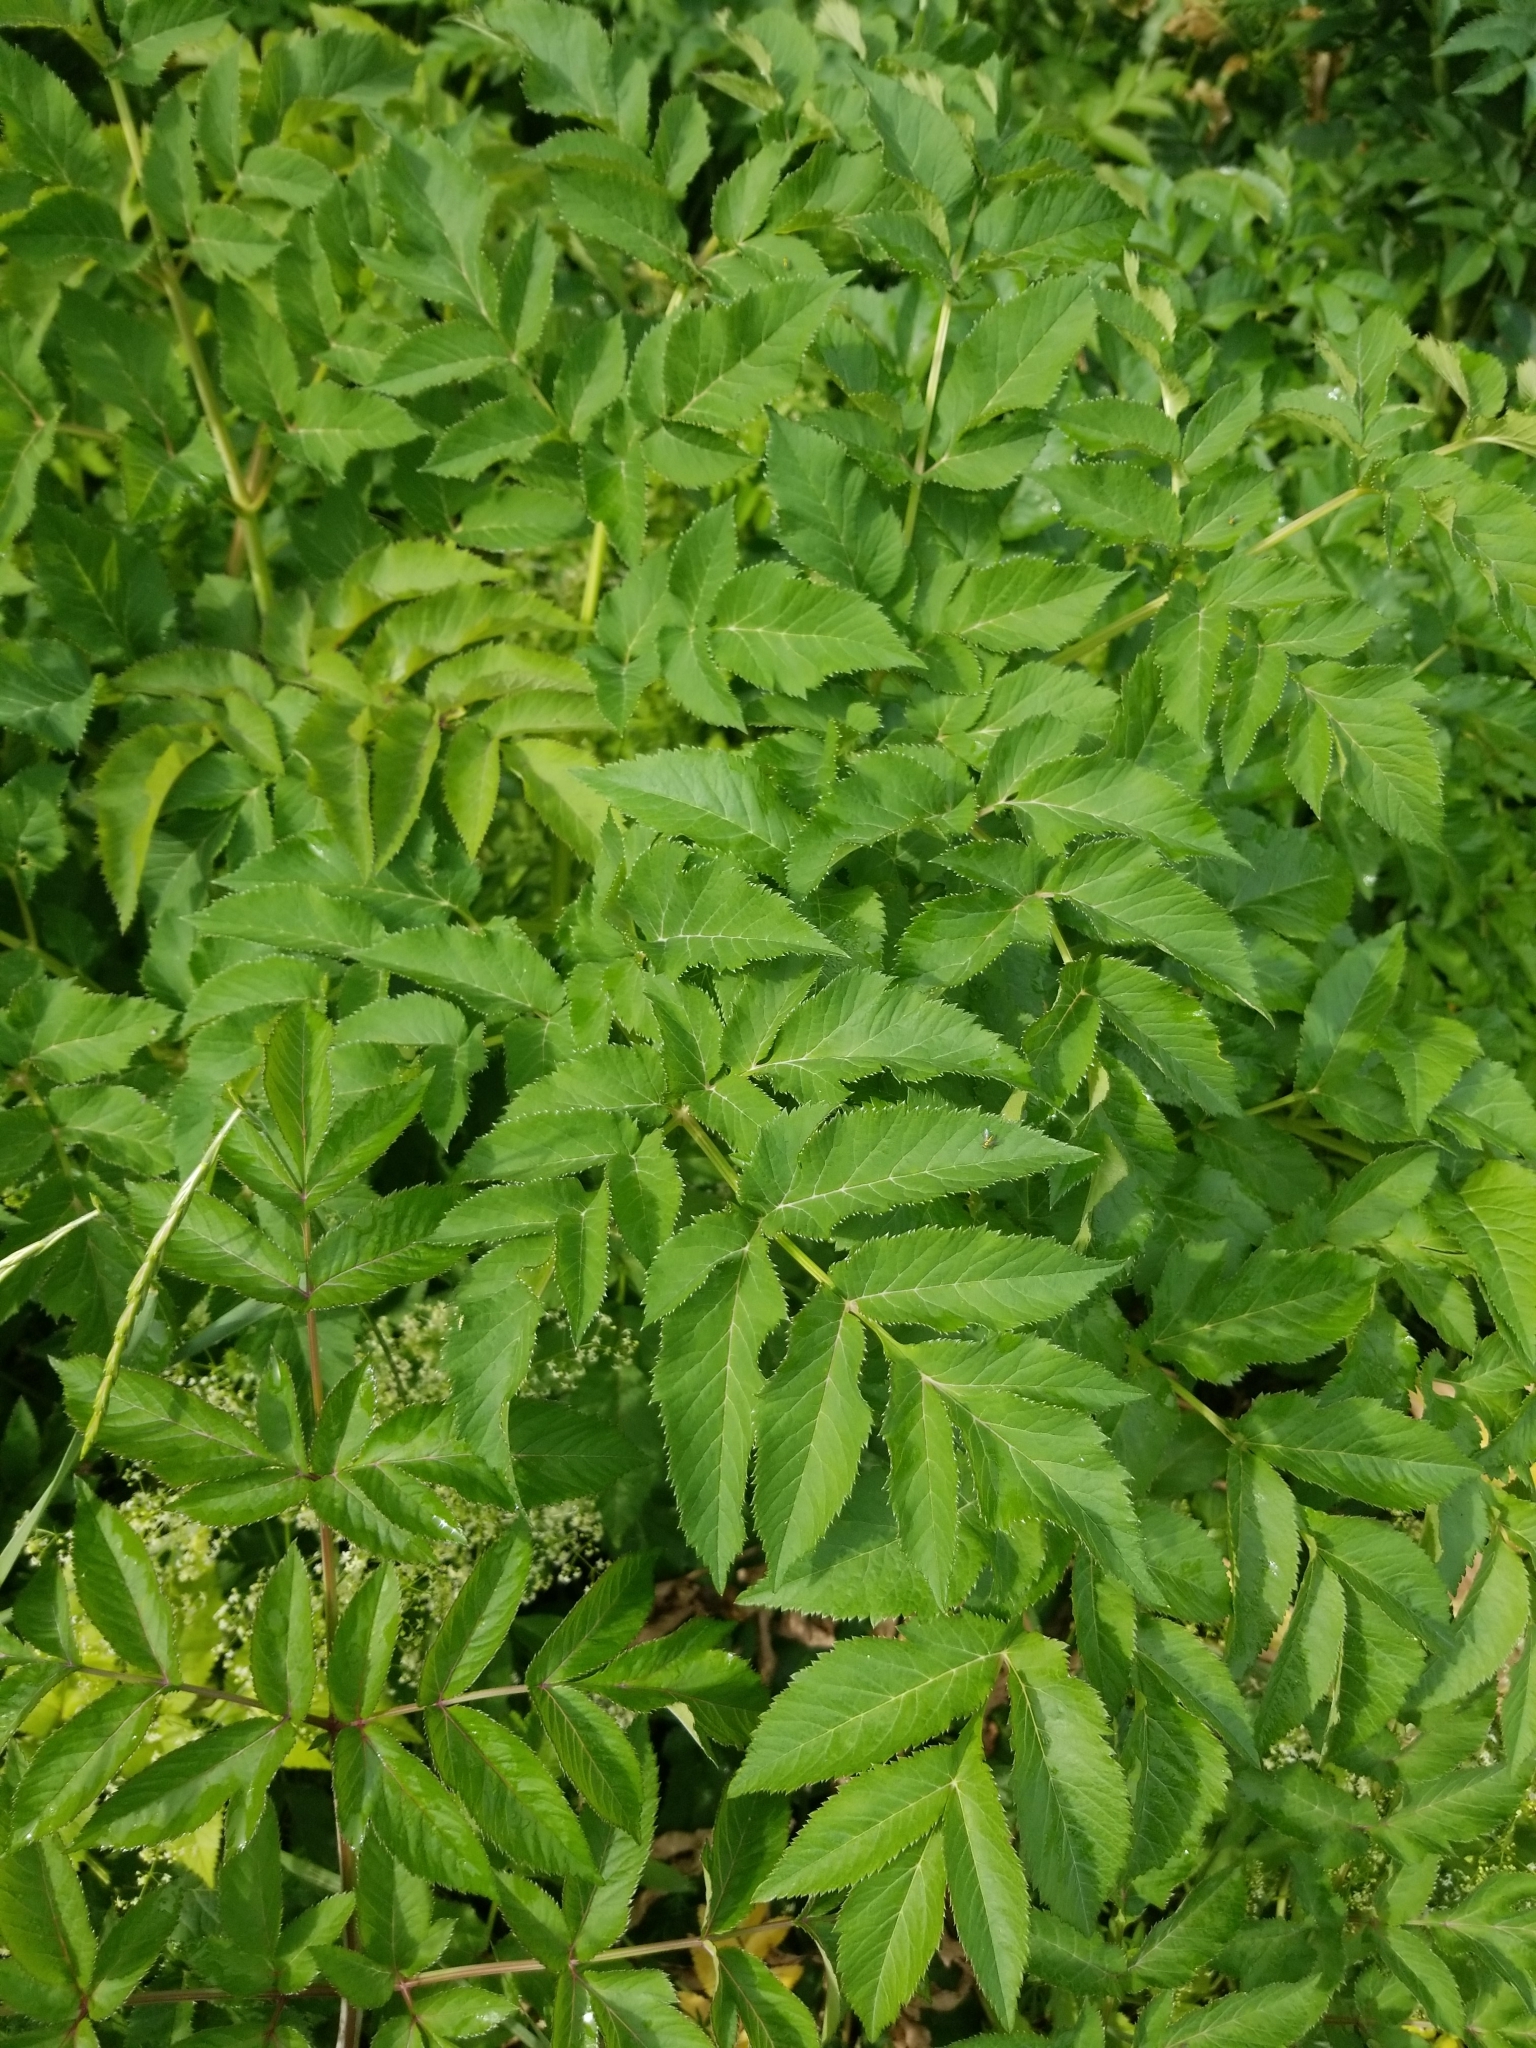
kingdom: Plantae
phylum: Tracheophyta
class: Magnoliopsida
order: Apiales
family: Apiaceae
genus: Angelica
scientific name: Angelica sylvestris
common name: Wild angelica
